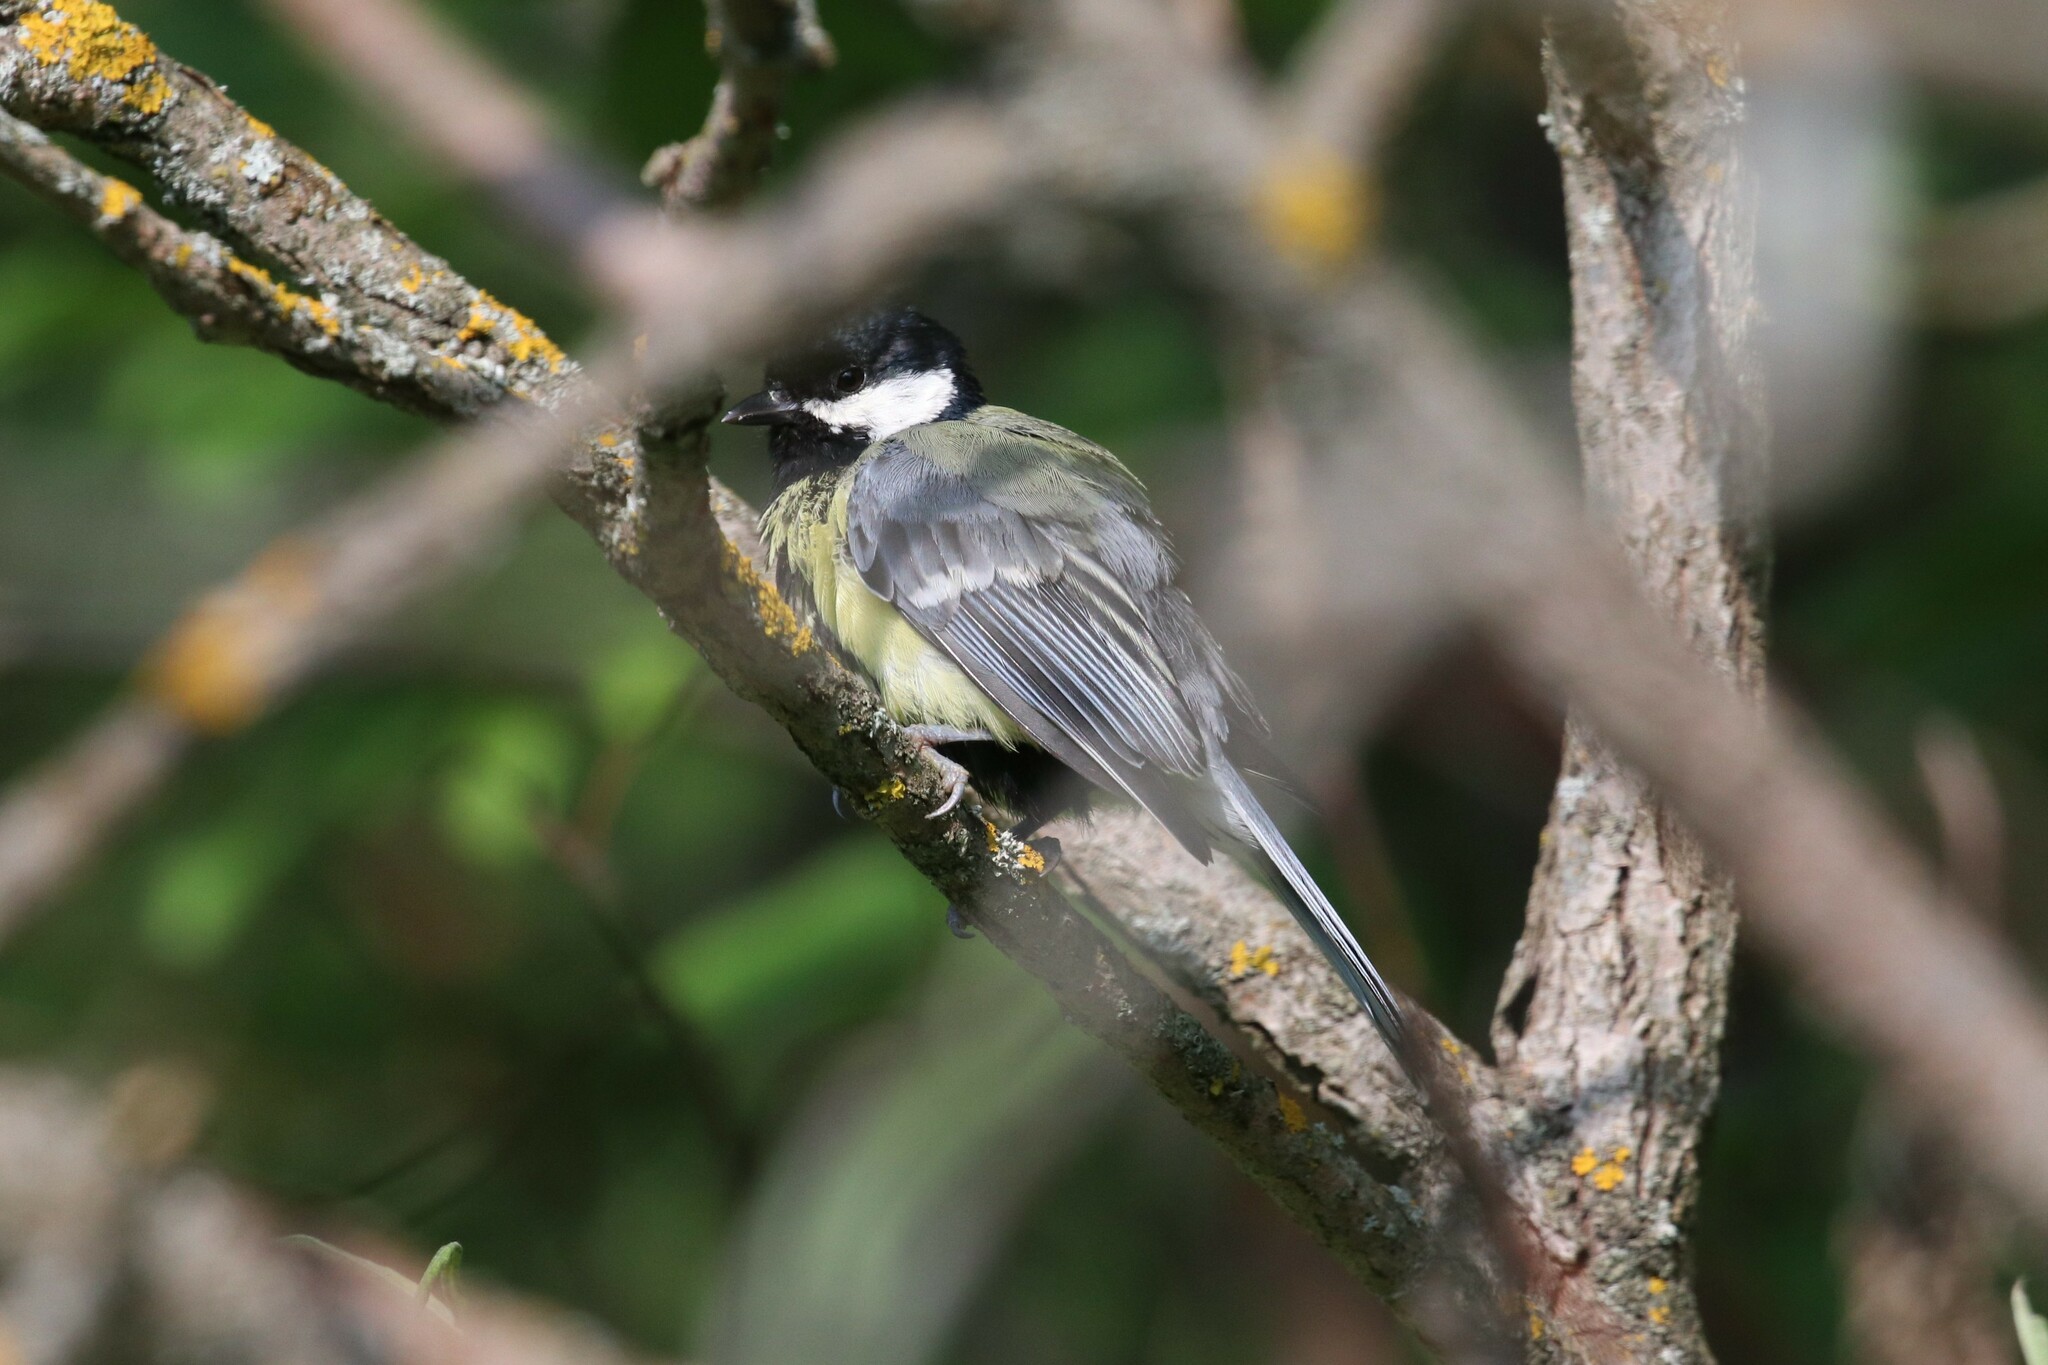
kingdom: Animalia
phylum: Chordata
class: Aves
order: Passeriformes
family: Paridae
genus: Parus
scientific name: Parus major
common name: Great tit
